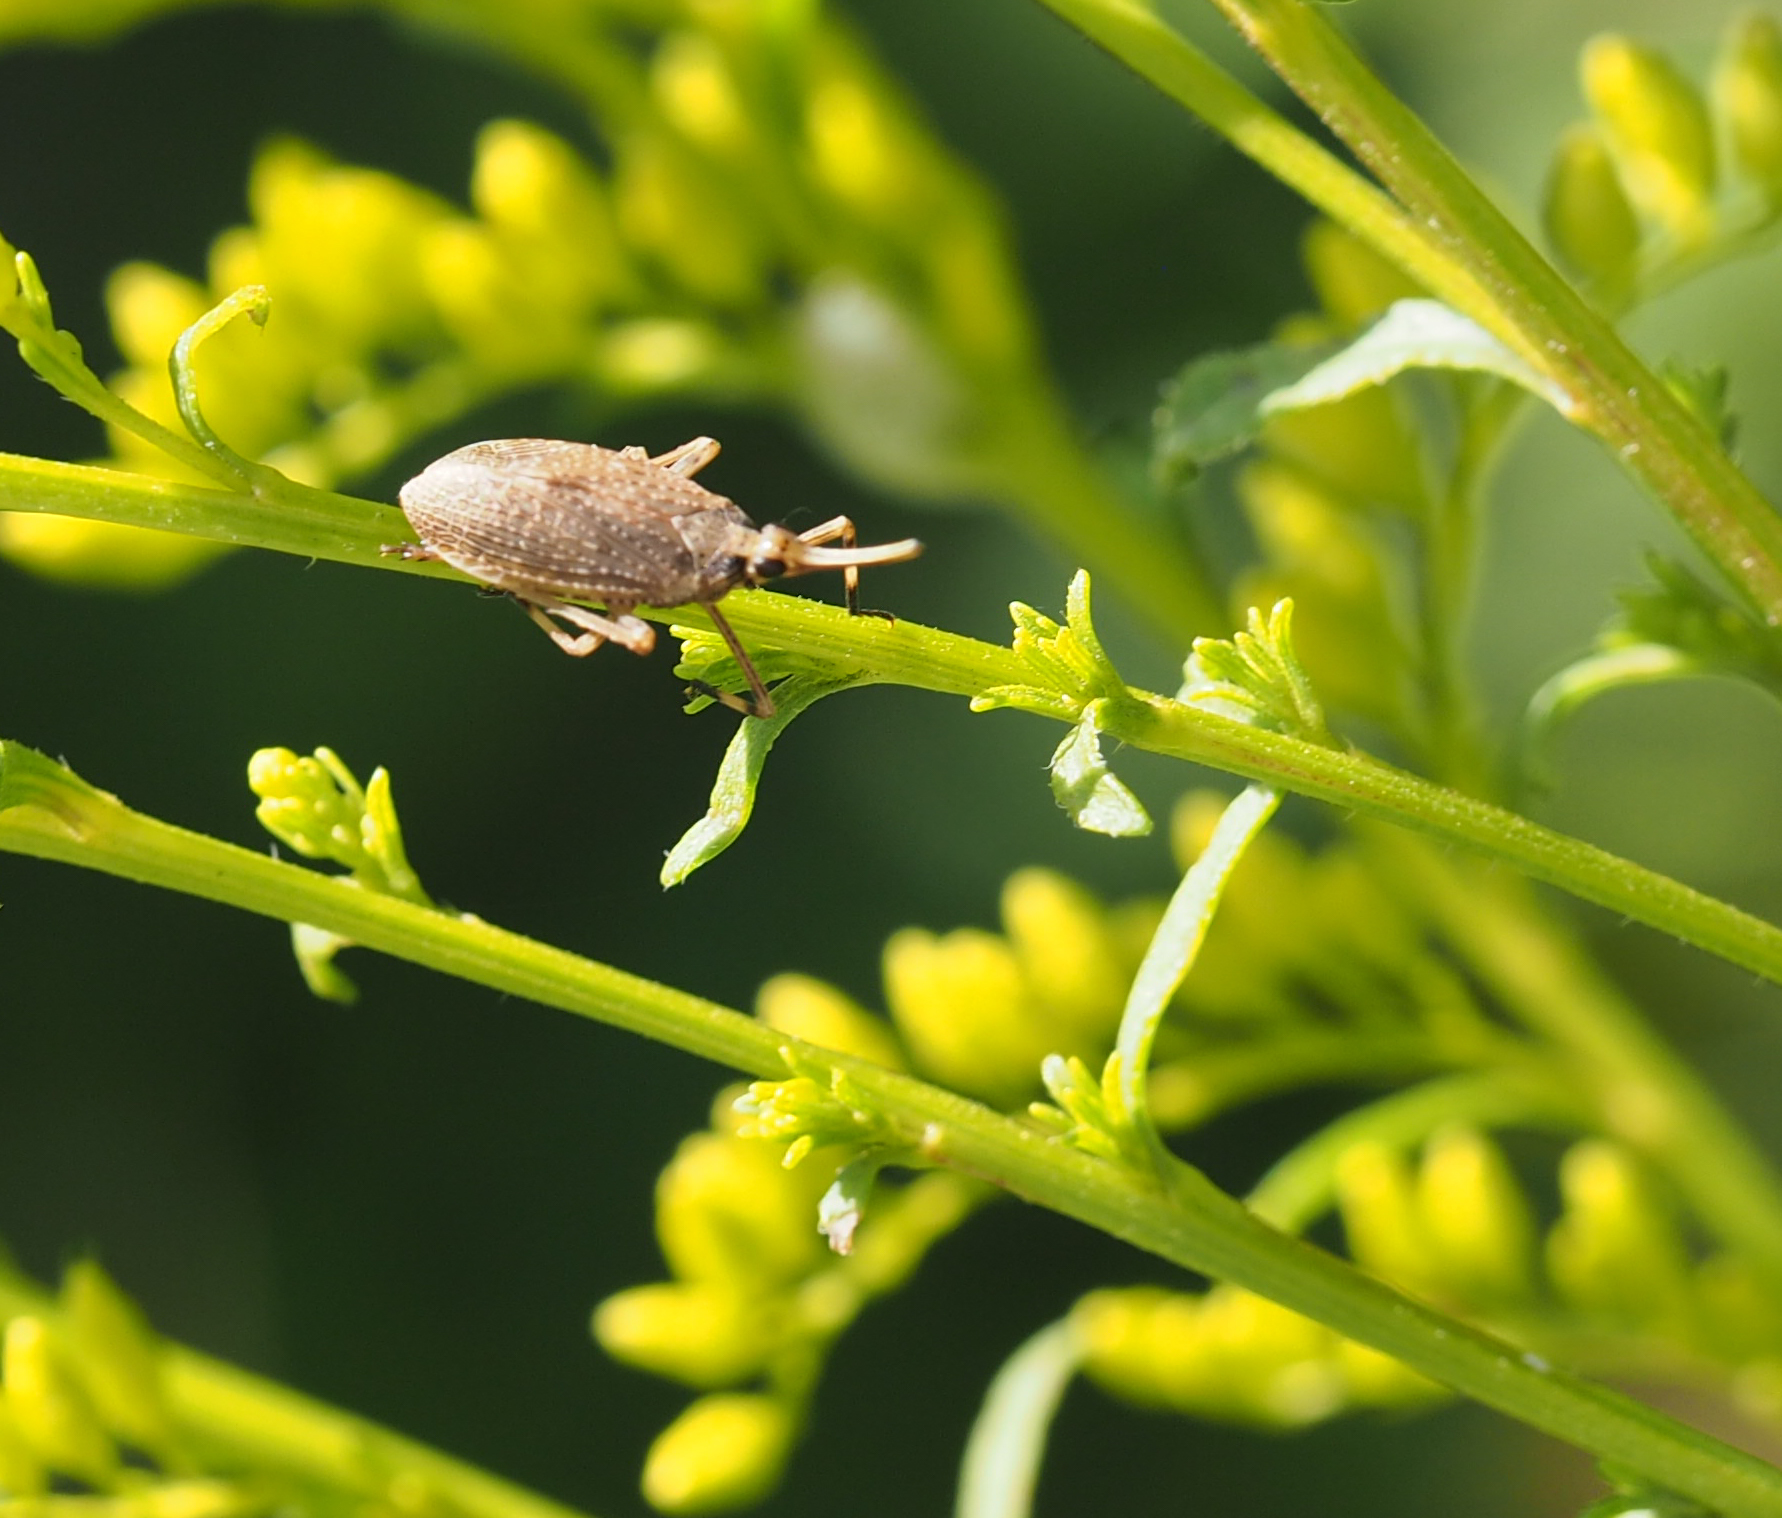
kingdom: Animalia
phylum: Arthropoda
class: Insecta
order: Hemiptera
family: Dictyopharidae
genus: Scolops
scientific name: Scolops sulcipes
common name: Partridge planthopper
